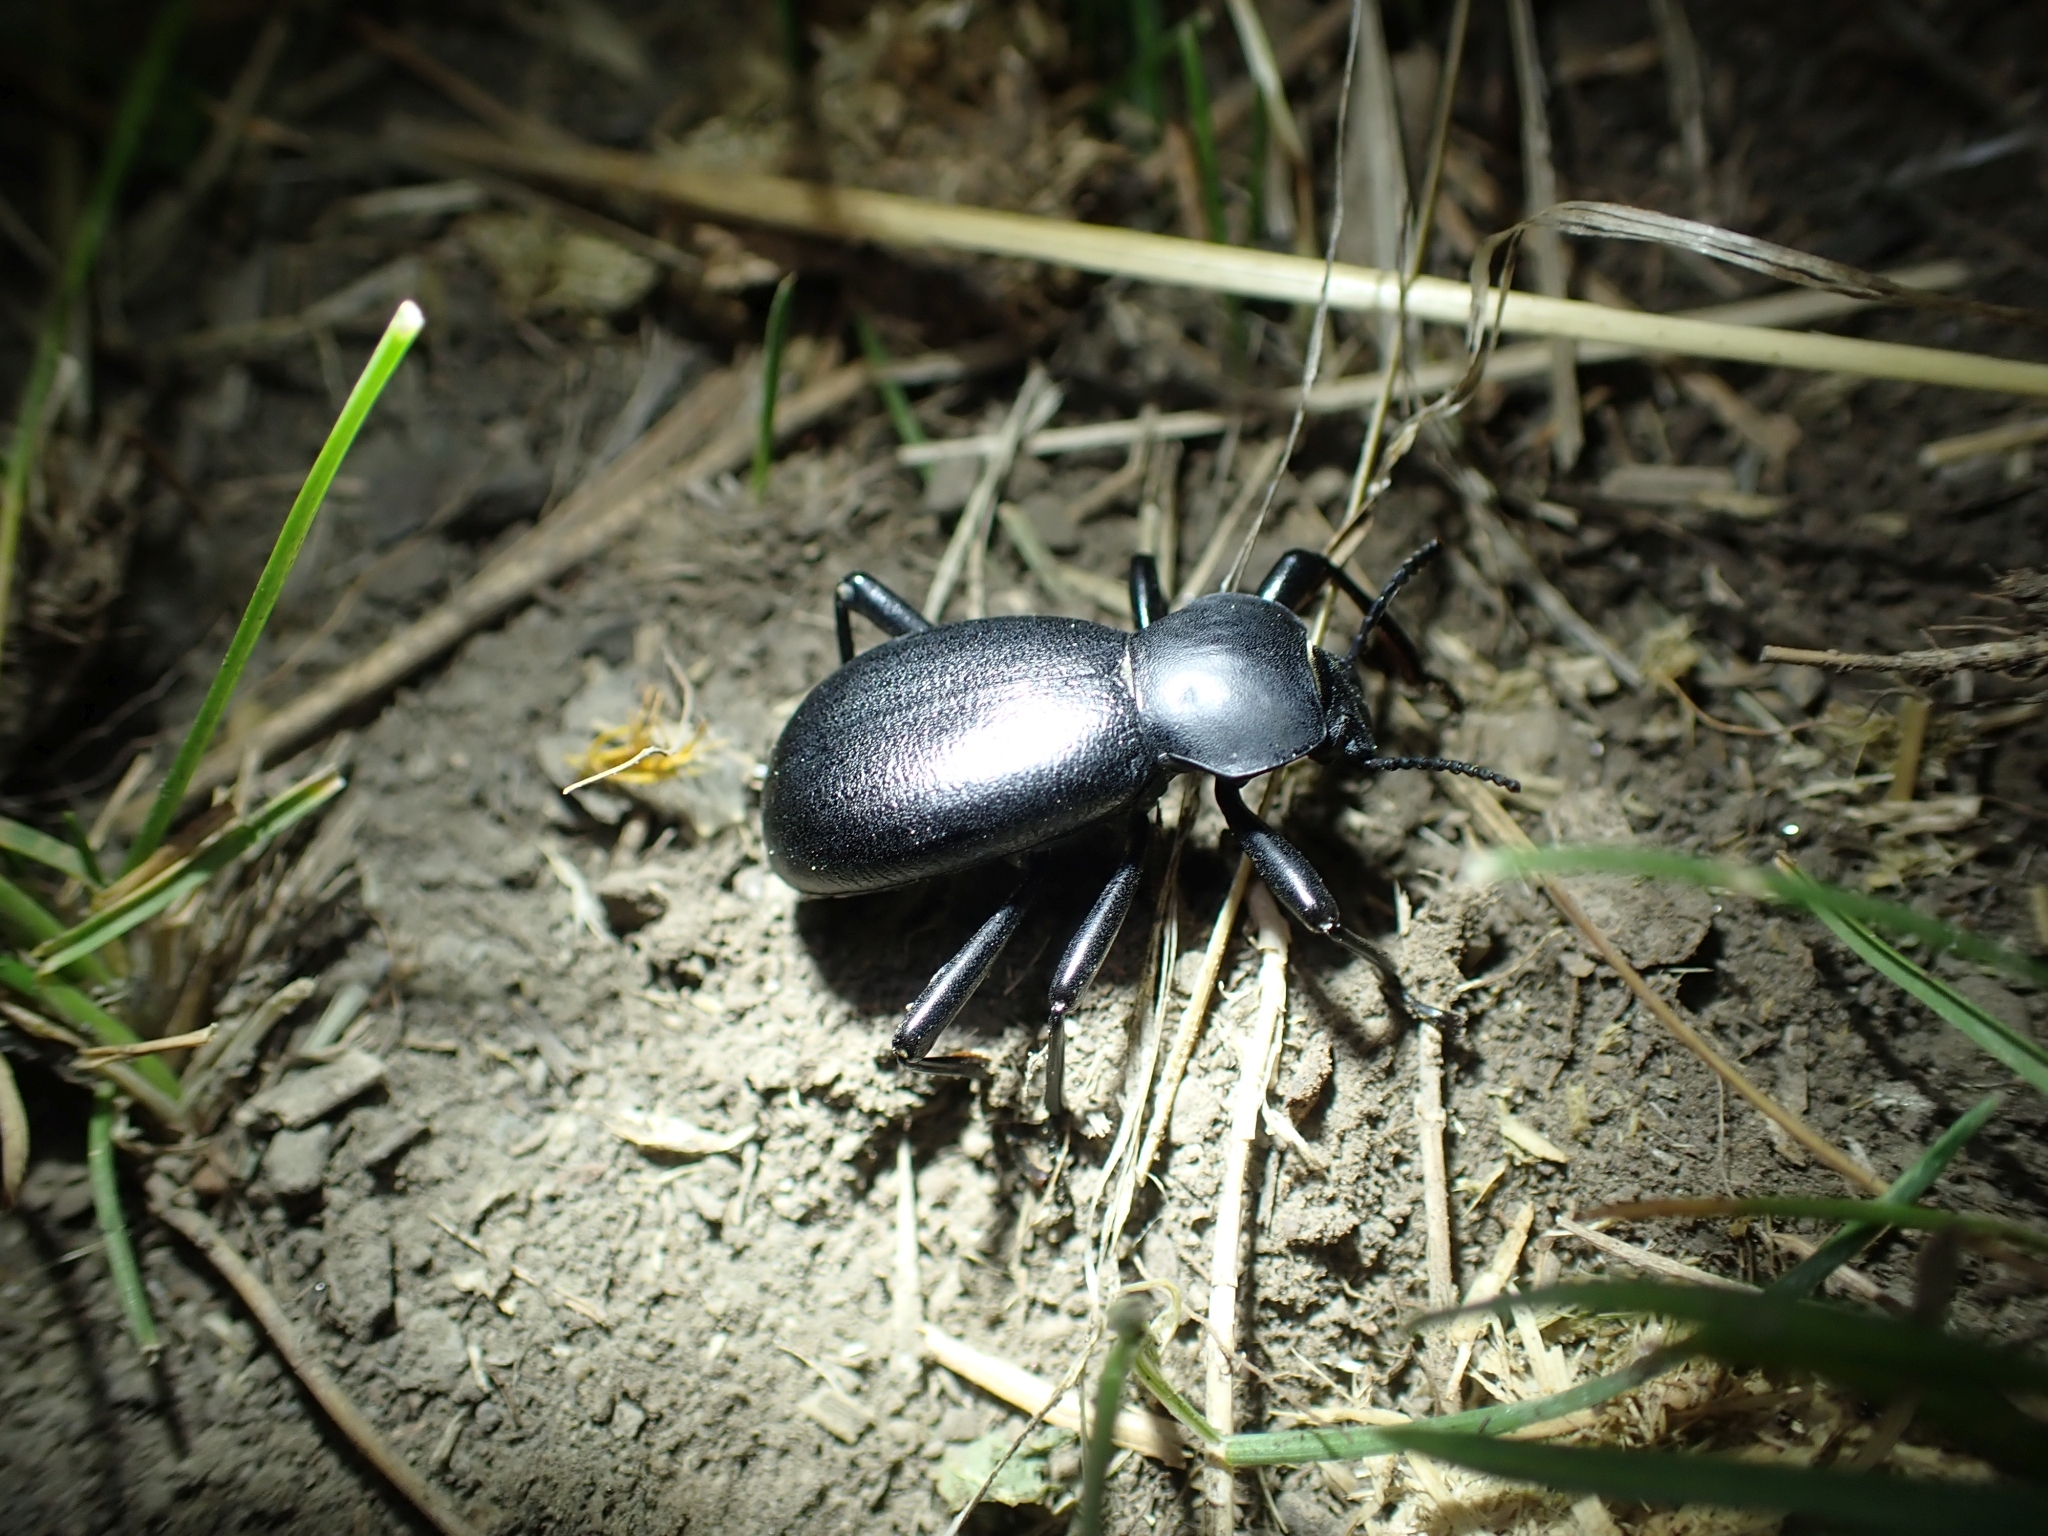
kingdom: Animalia
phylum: Arthropoda
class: Insecta
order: Coleoptera
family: Tenebrionidae
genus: Coelocnemis
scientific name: Coelocnemis dilaticollis
